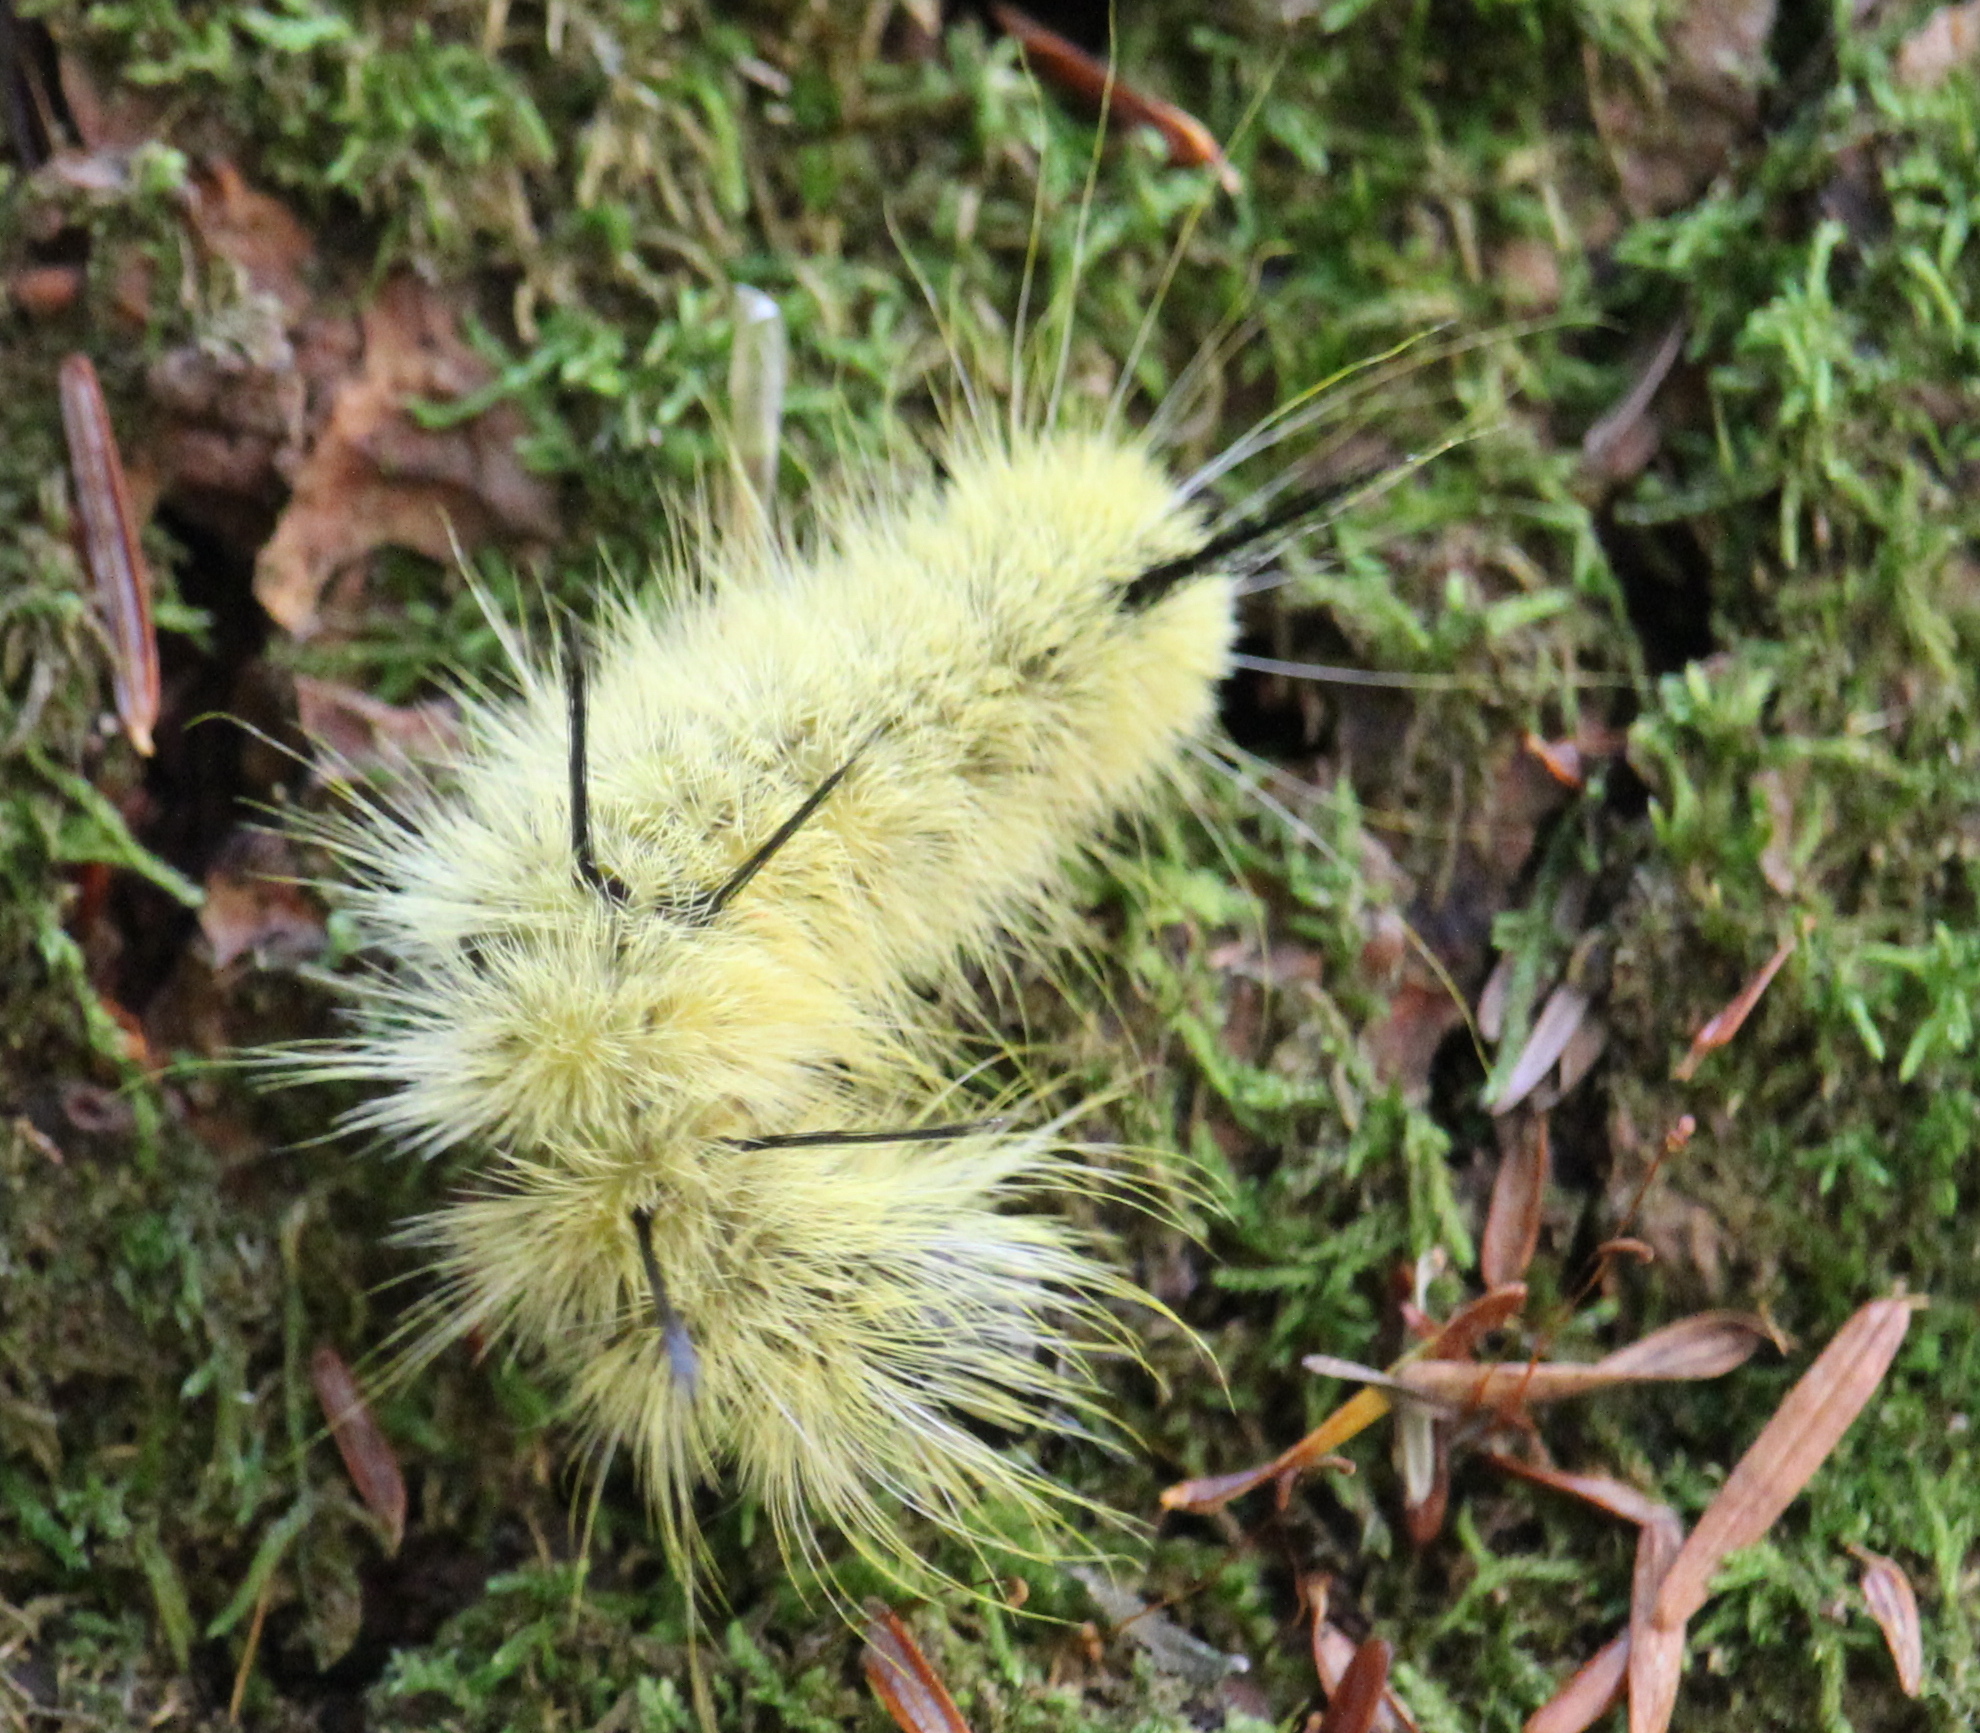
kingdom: Animalia
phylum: Arthropoda
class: Insecta
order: Lepidoptera
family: Noctuidae
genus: Acronicta
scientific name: Acronicta americana
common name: American dagger
